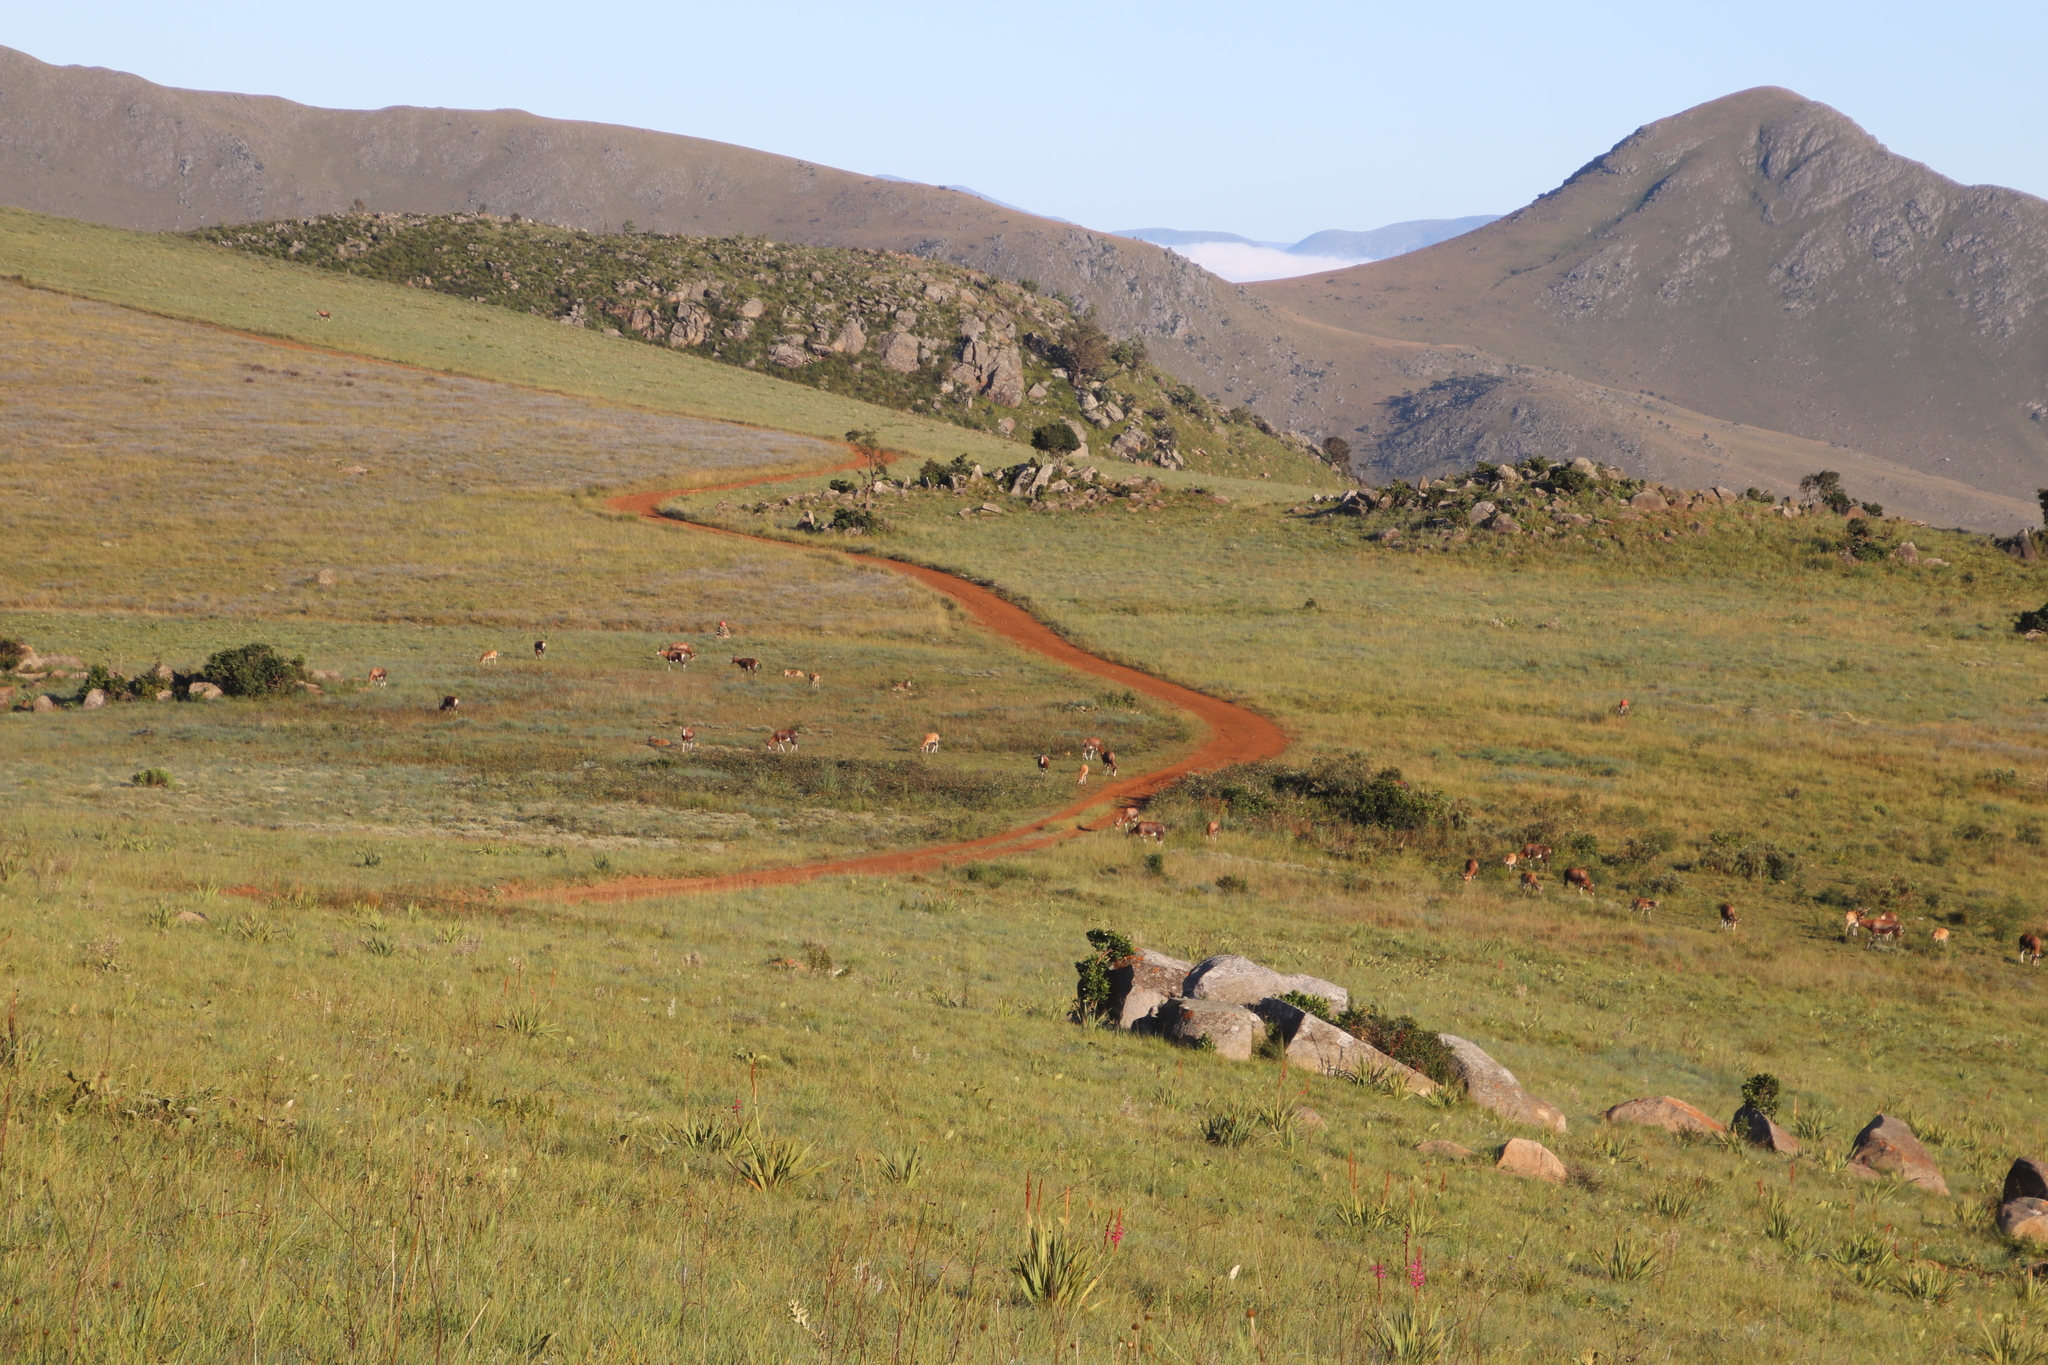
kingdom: Animalia
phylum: Chordata
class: Mammalia
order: Artiodactyla
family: Bovidae
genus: Damaliscus
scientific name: Damaliscus pygargus
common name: Bontebok
